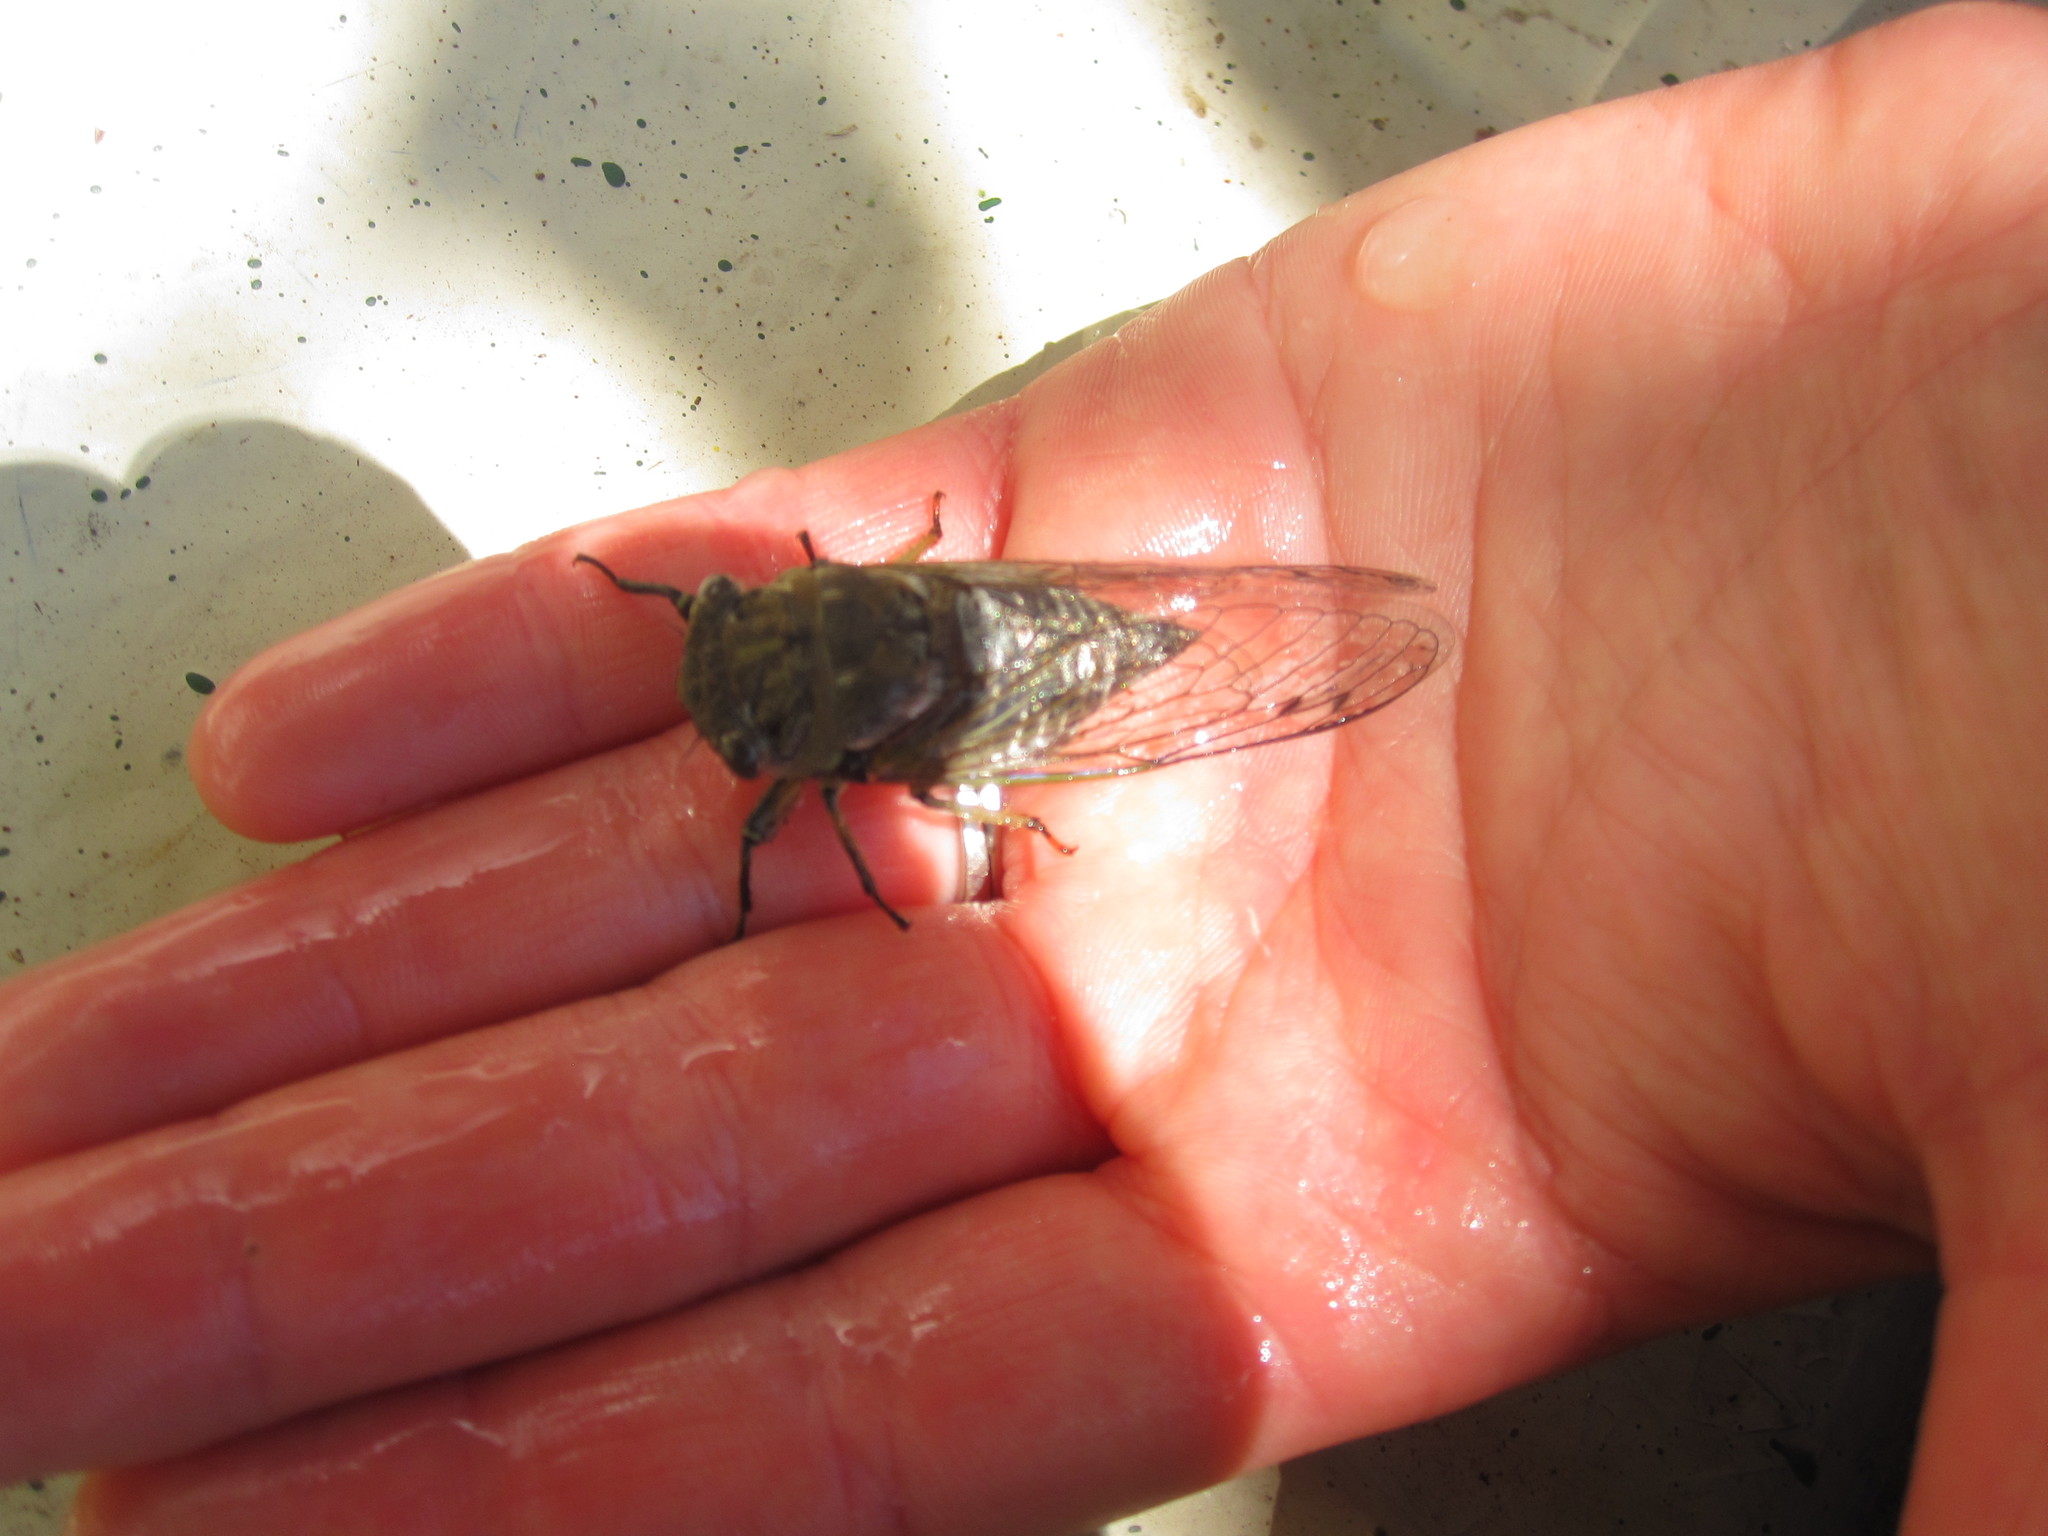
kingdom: Animalia
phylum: Arthropoda
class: Insecta
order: Hemiptera
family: Cicadidae
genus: Neotibicen
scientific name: Neotibicen canicularis
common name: God-day cicada
